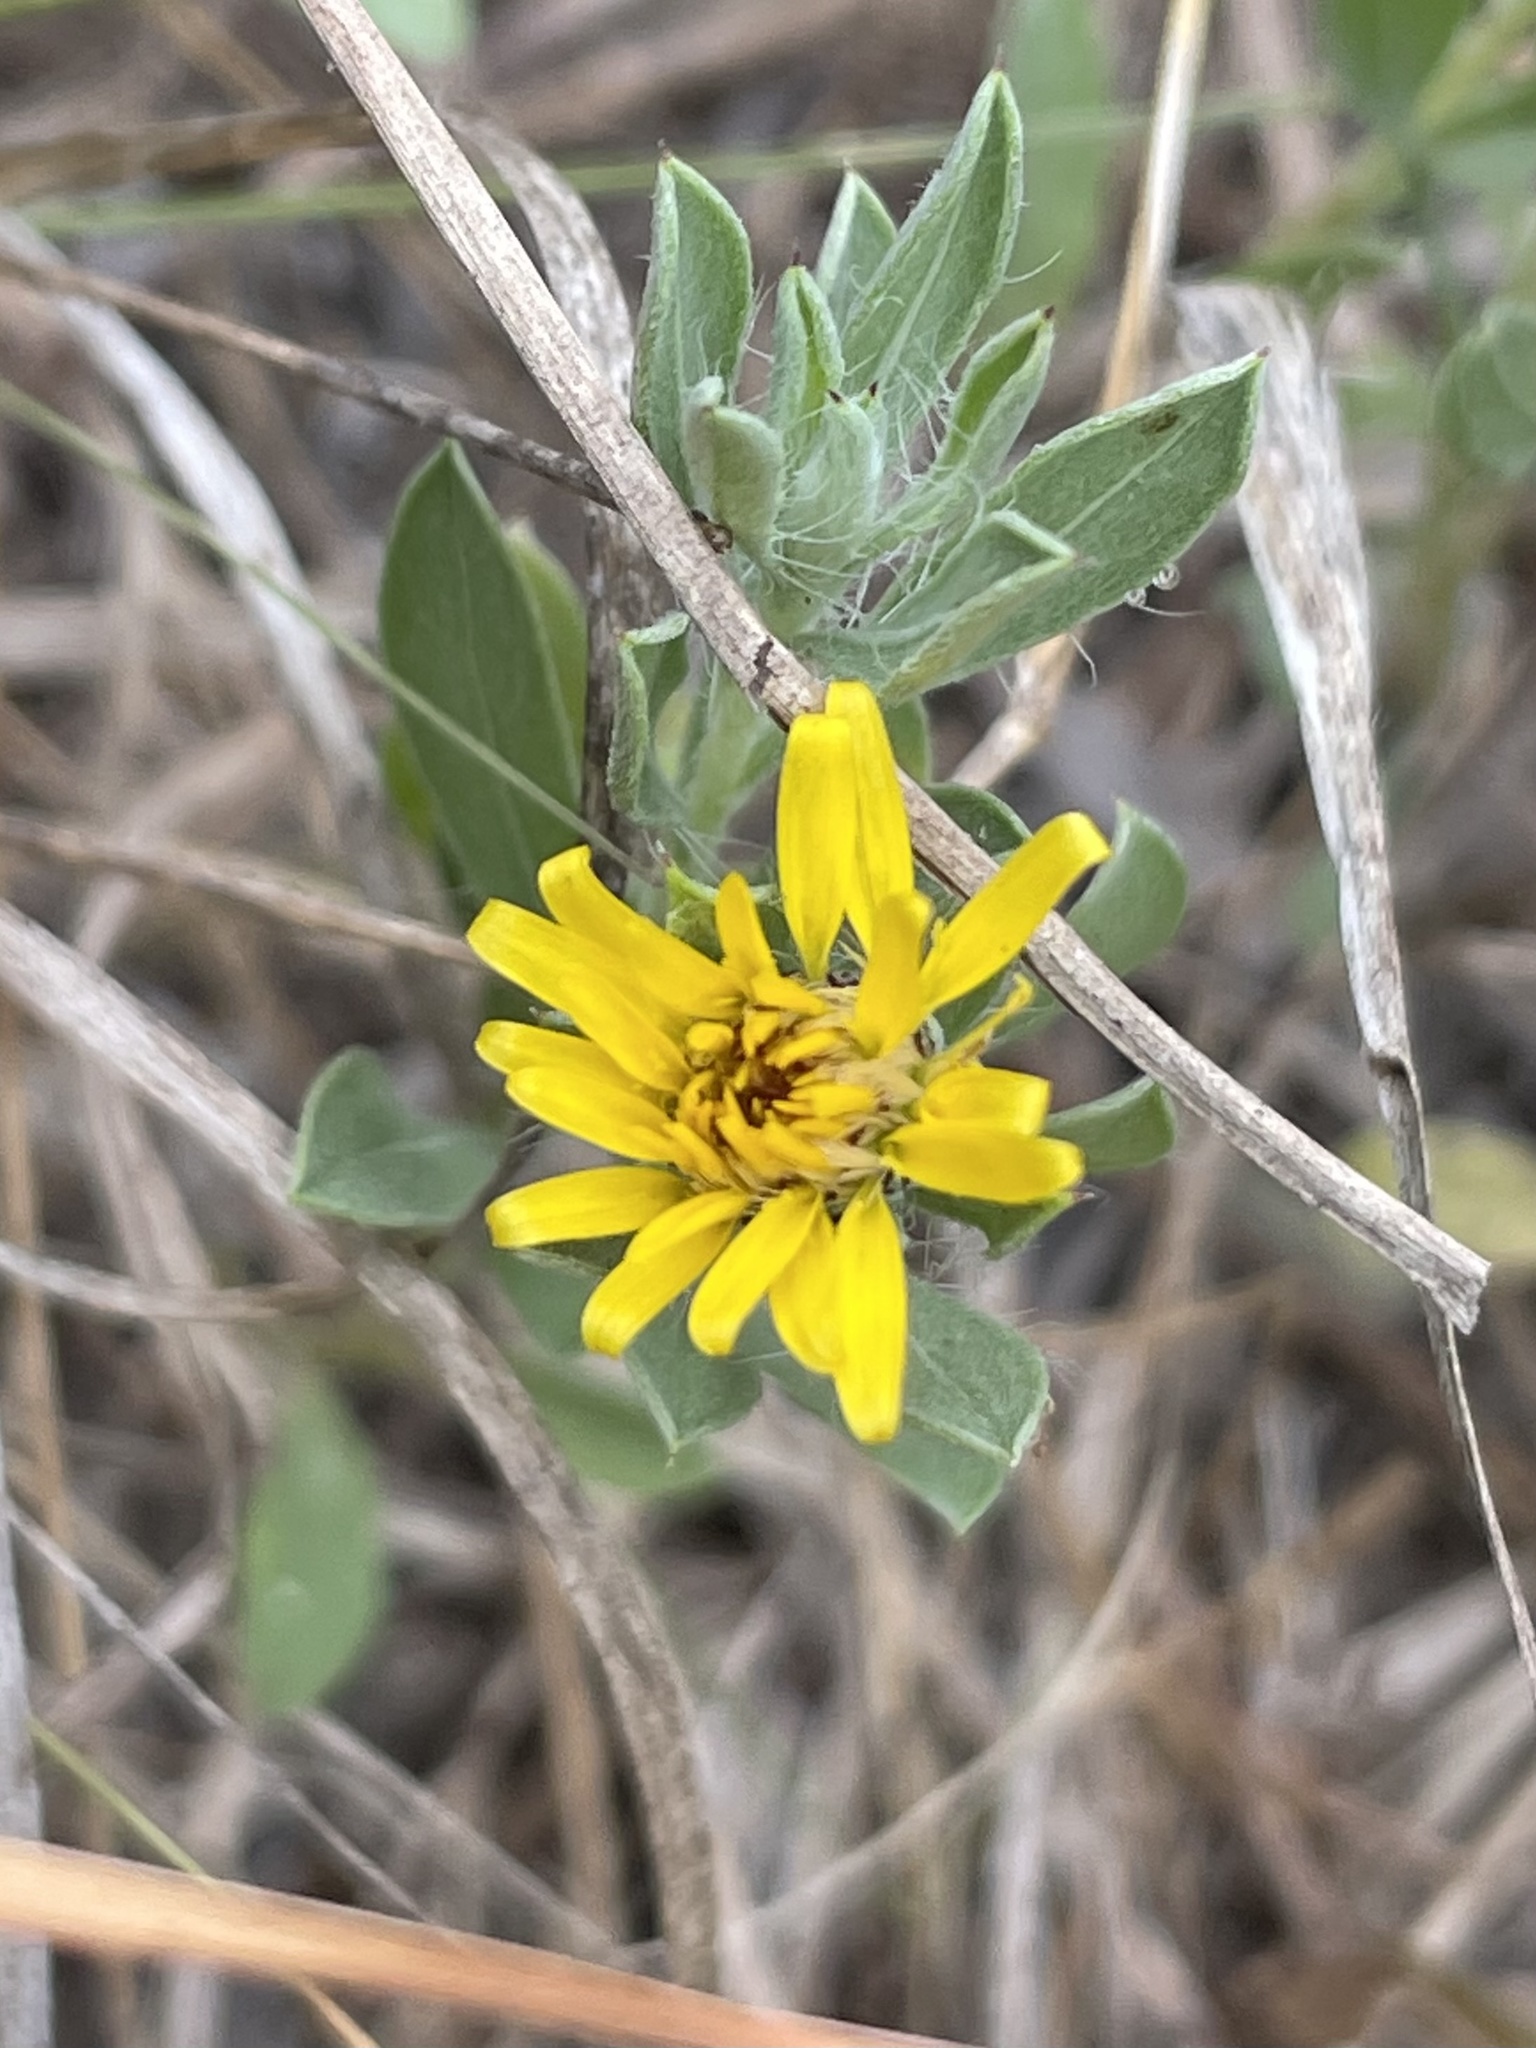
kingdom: Plantae
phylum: Tracheophyta
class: Magnoliopsida
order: Asterales
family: Asteraceae
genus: Heterotheca
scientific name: Heterotheca canescens
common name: Hoary golden-aster
